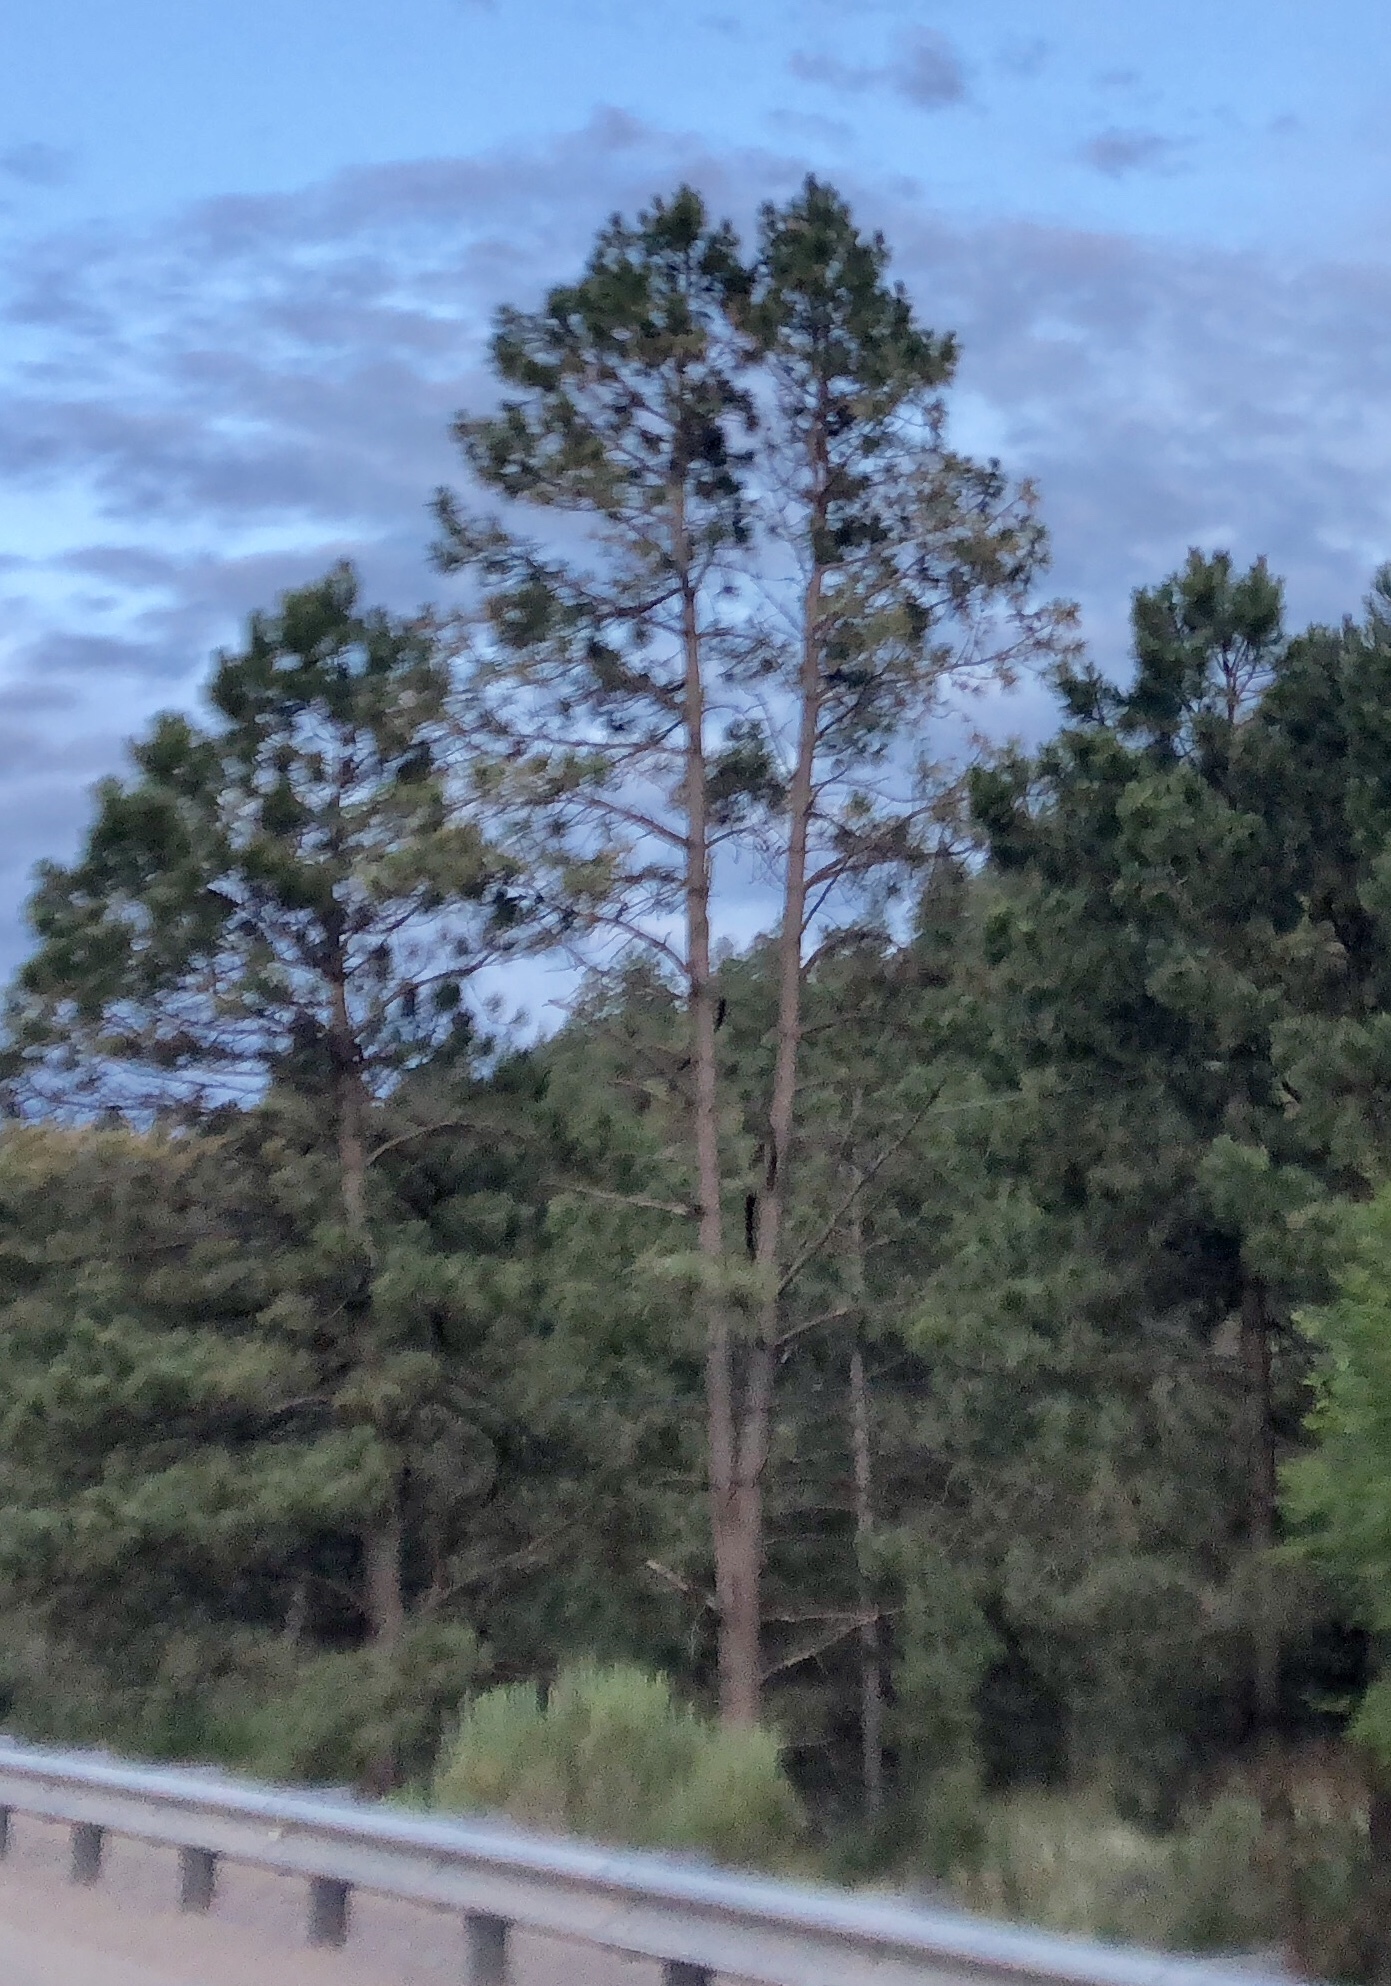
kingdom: Plantae
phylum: Tracheophyta
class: Pinopsida
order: Pinales
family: Pinaceae
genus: Pinus
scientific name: Pinus ponderosa
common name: Western yellow-pine
